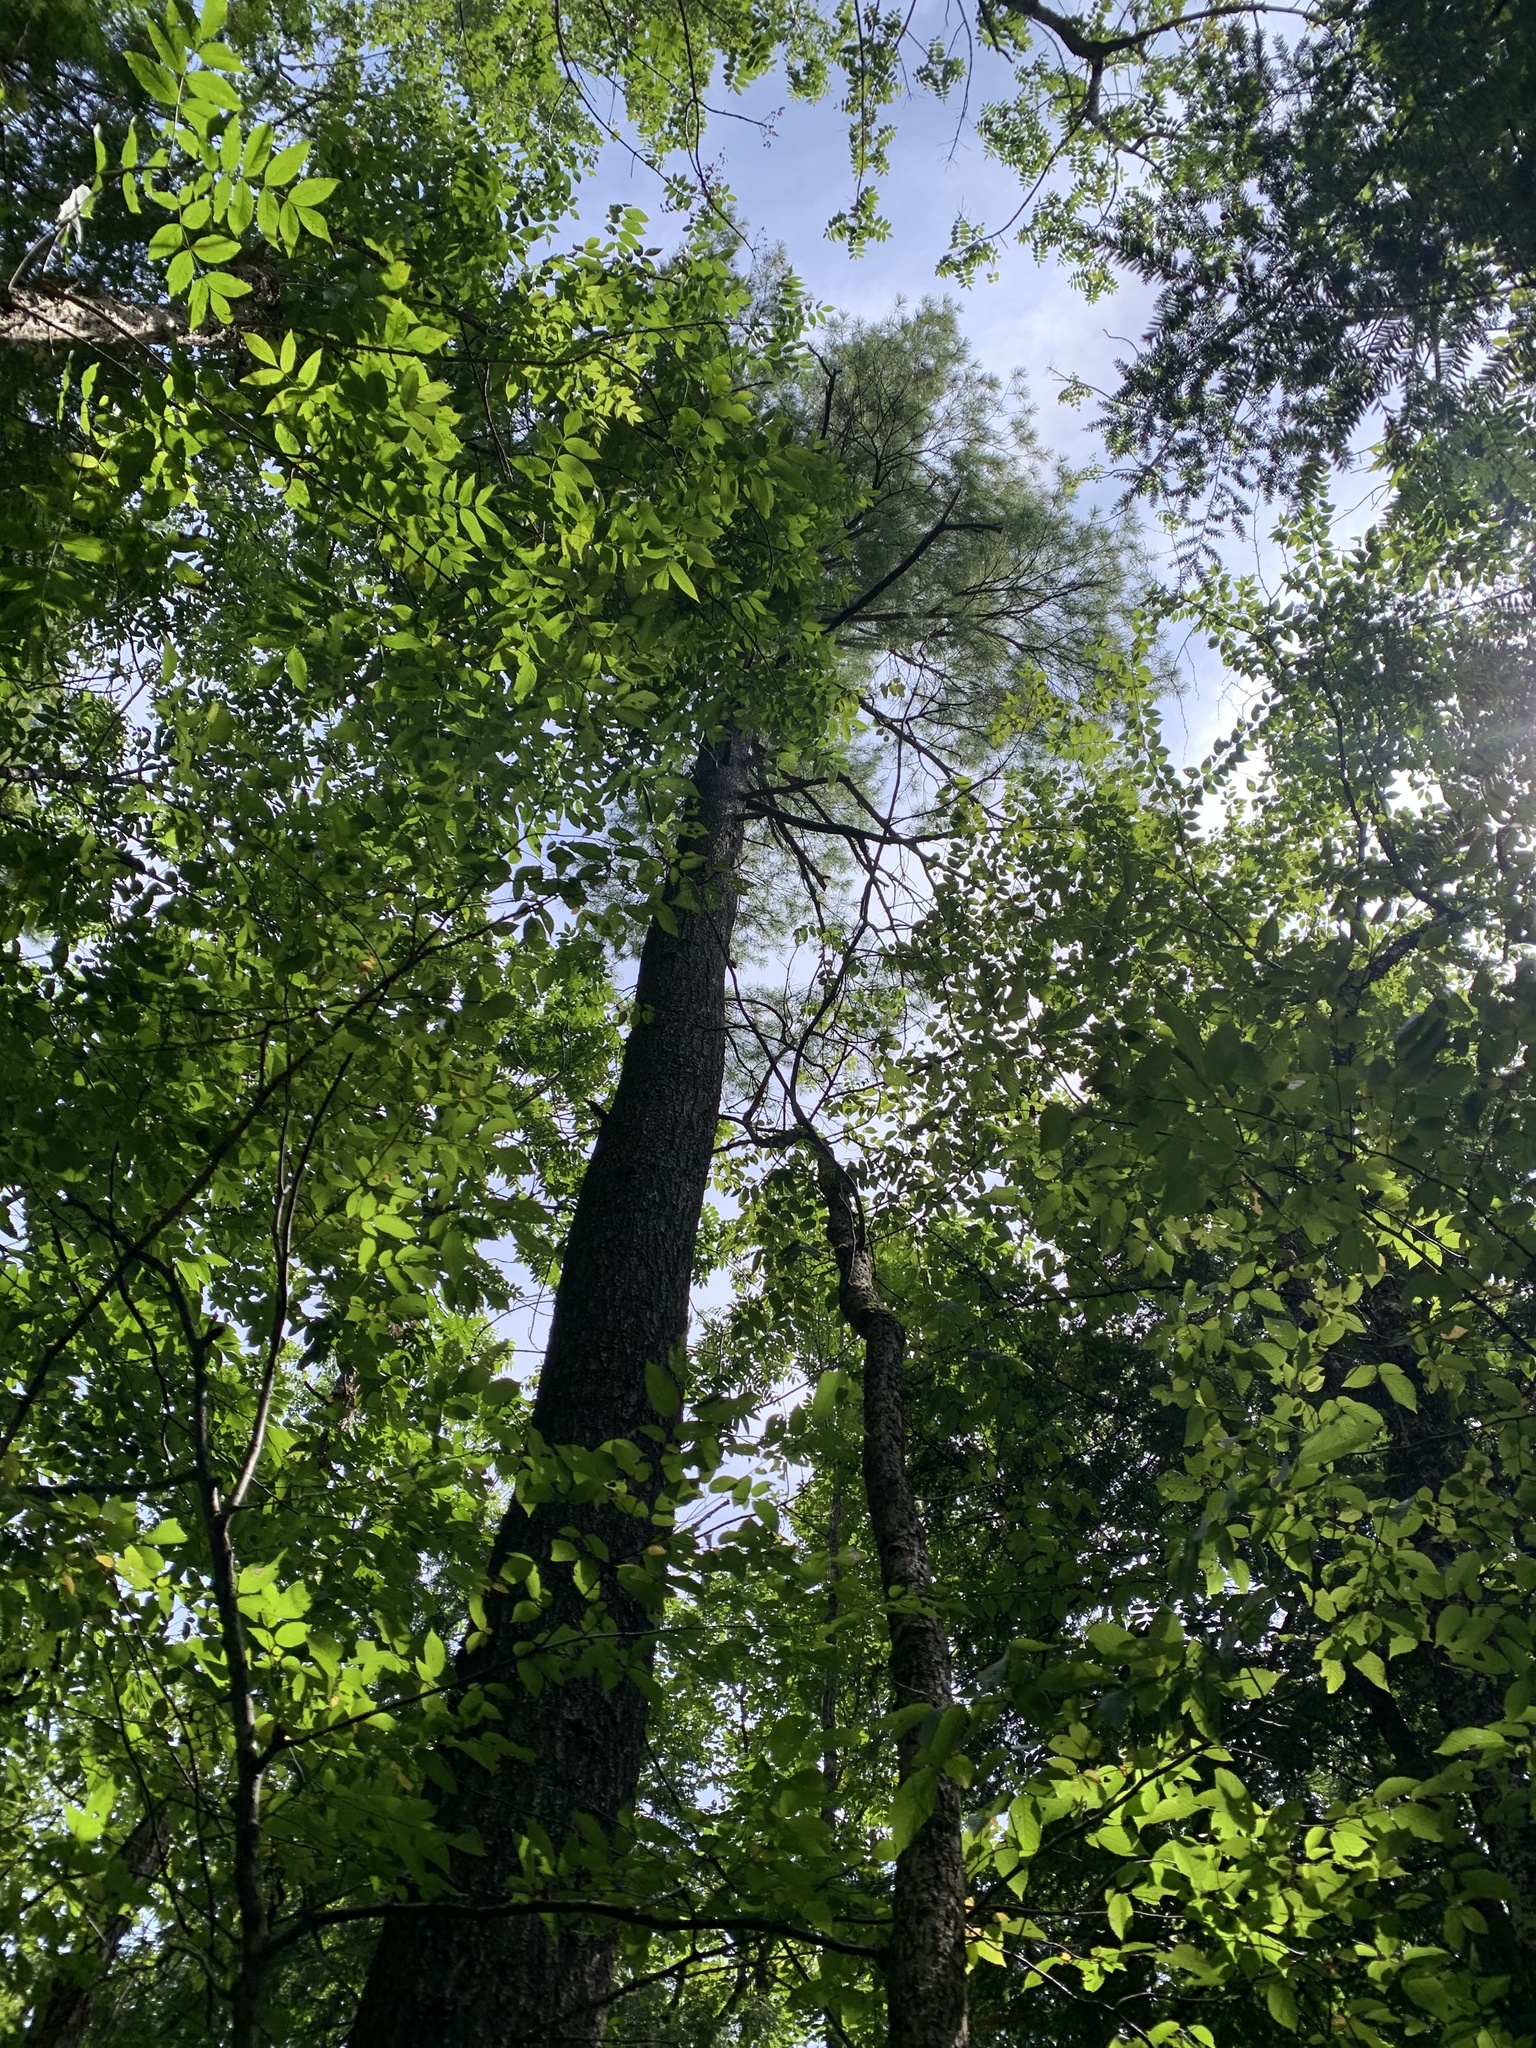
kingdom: Plantae
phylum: Tracheophyta
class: Pinopsida
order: Pinales
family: Pinaceae
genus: Pinus
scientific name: Pinus strobus
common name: Weymouth pine
